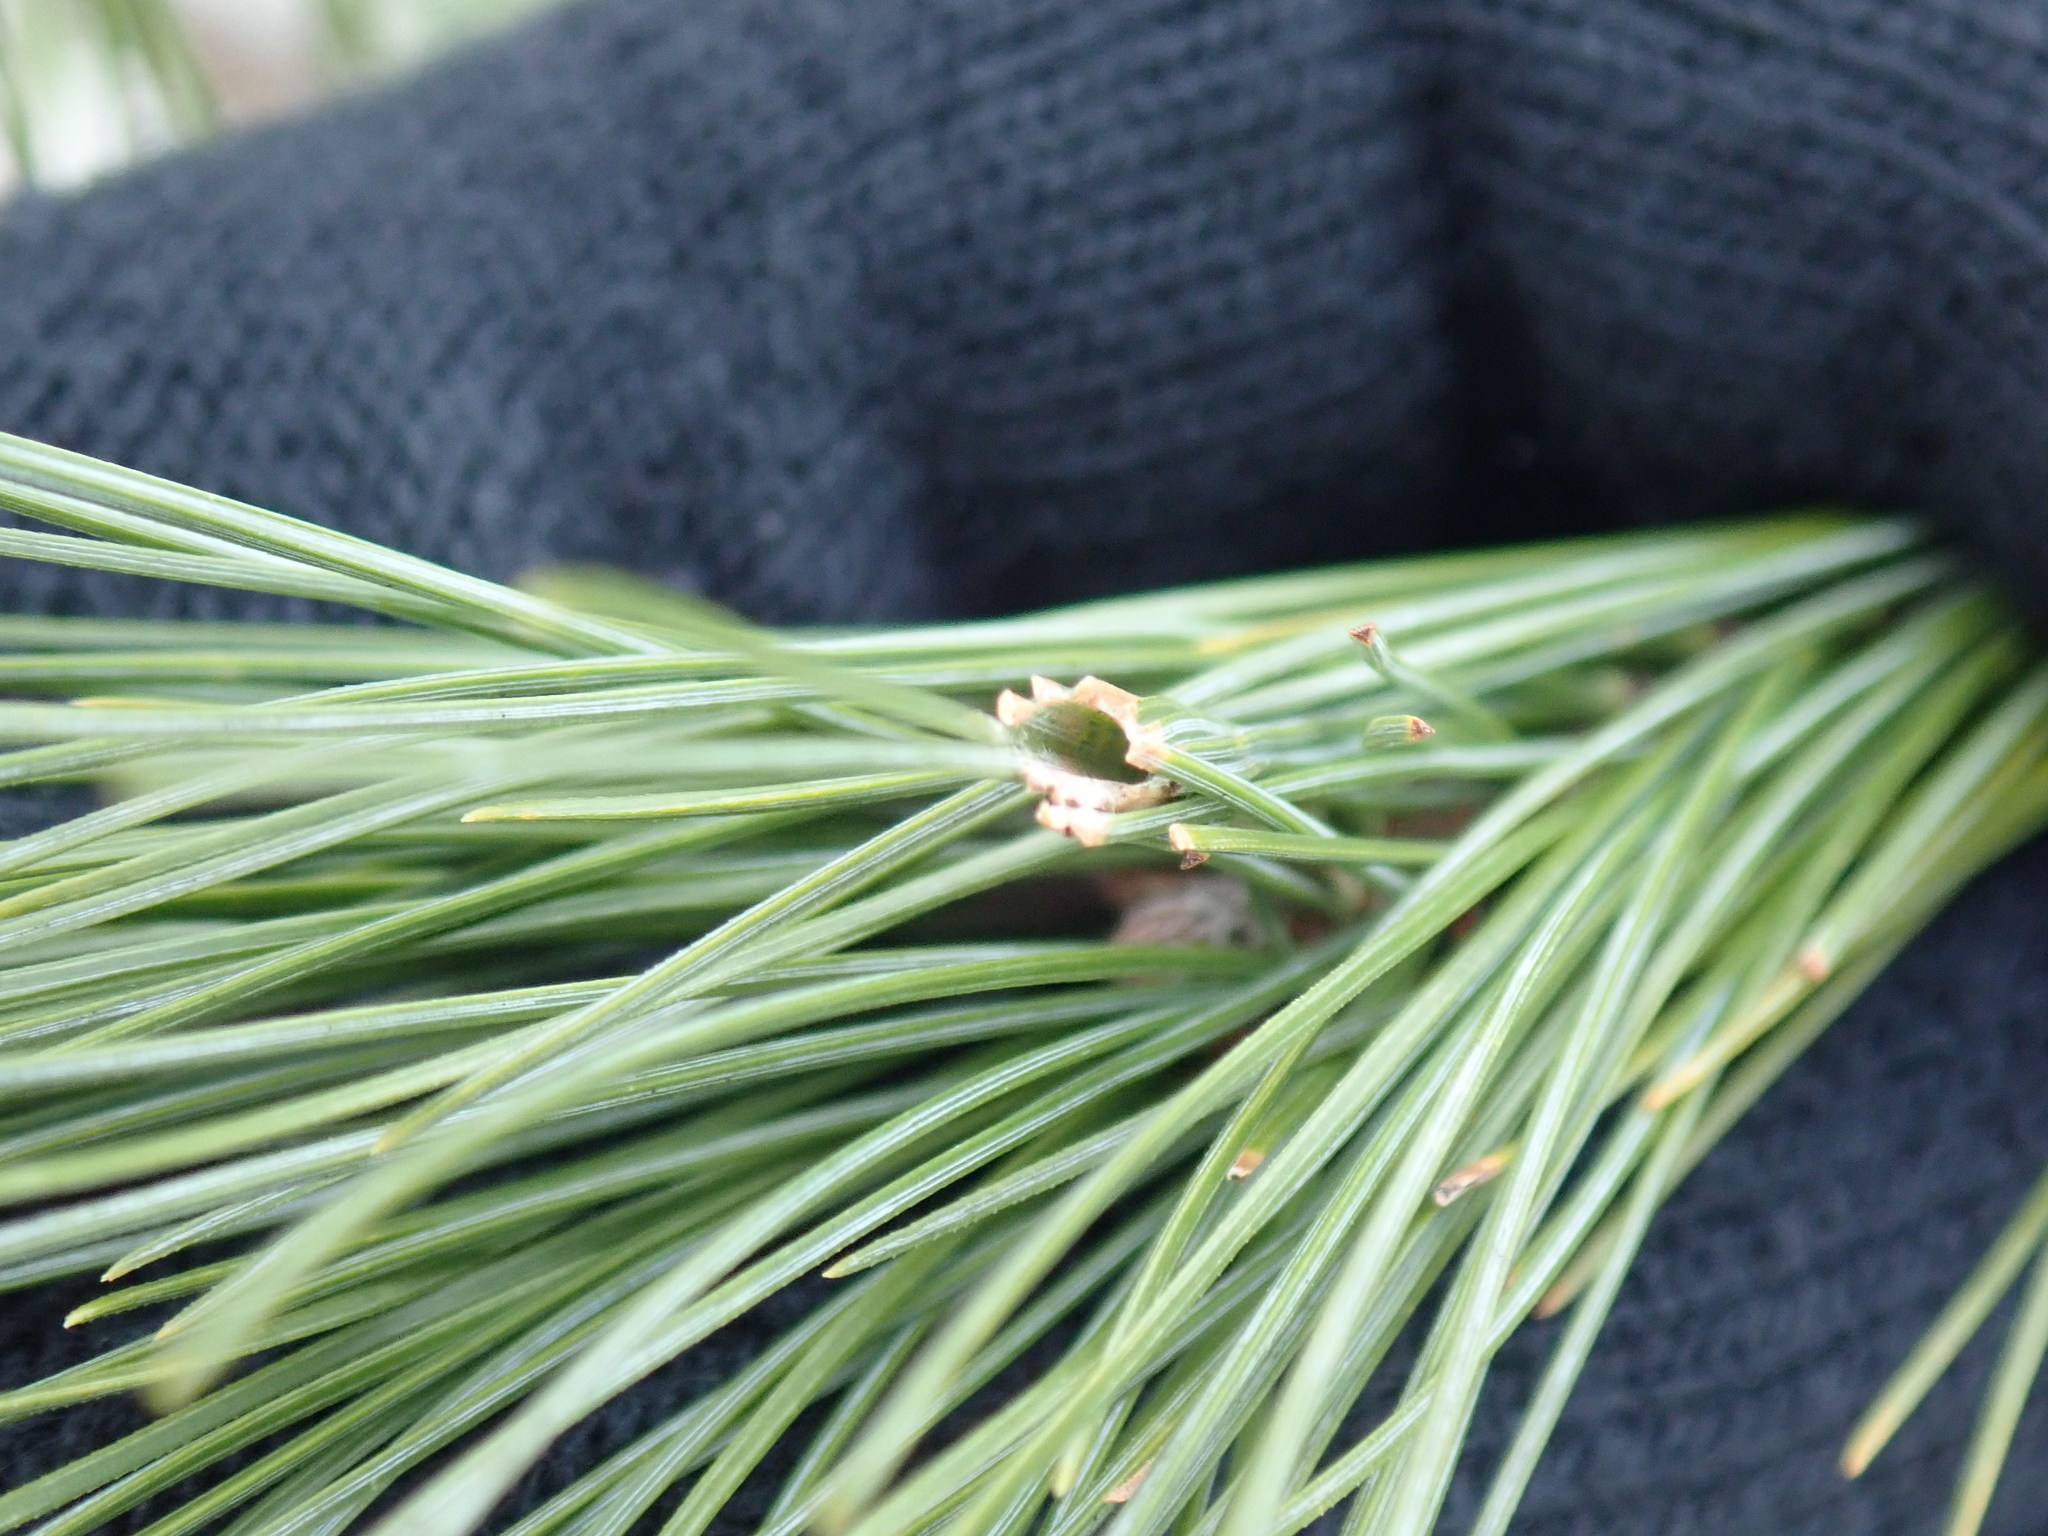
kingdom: Animalia
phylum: Arthropoda
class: Insecta
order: Lepidoptera
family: Tortricidae
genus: Argyrotaenia
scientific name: Argyrotaenia pinatubana
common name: Pine tube moth
